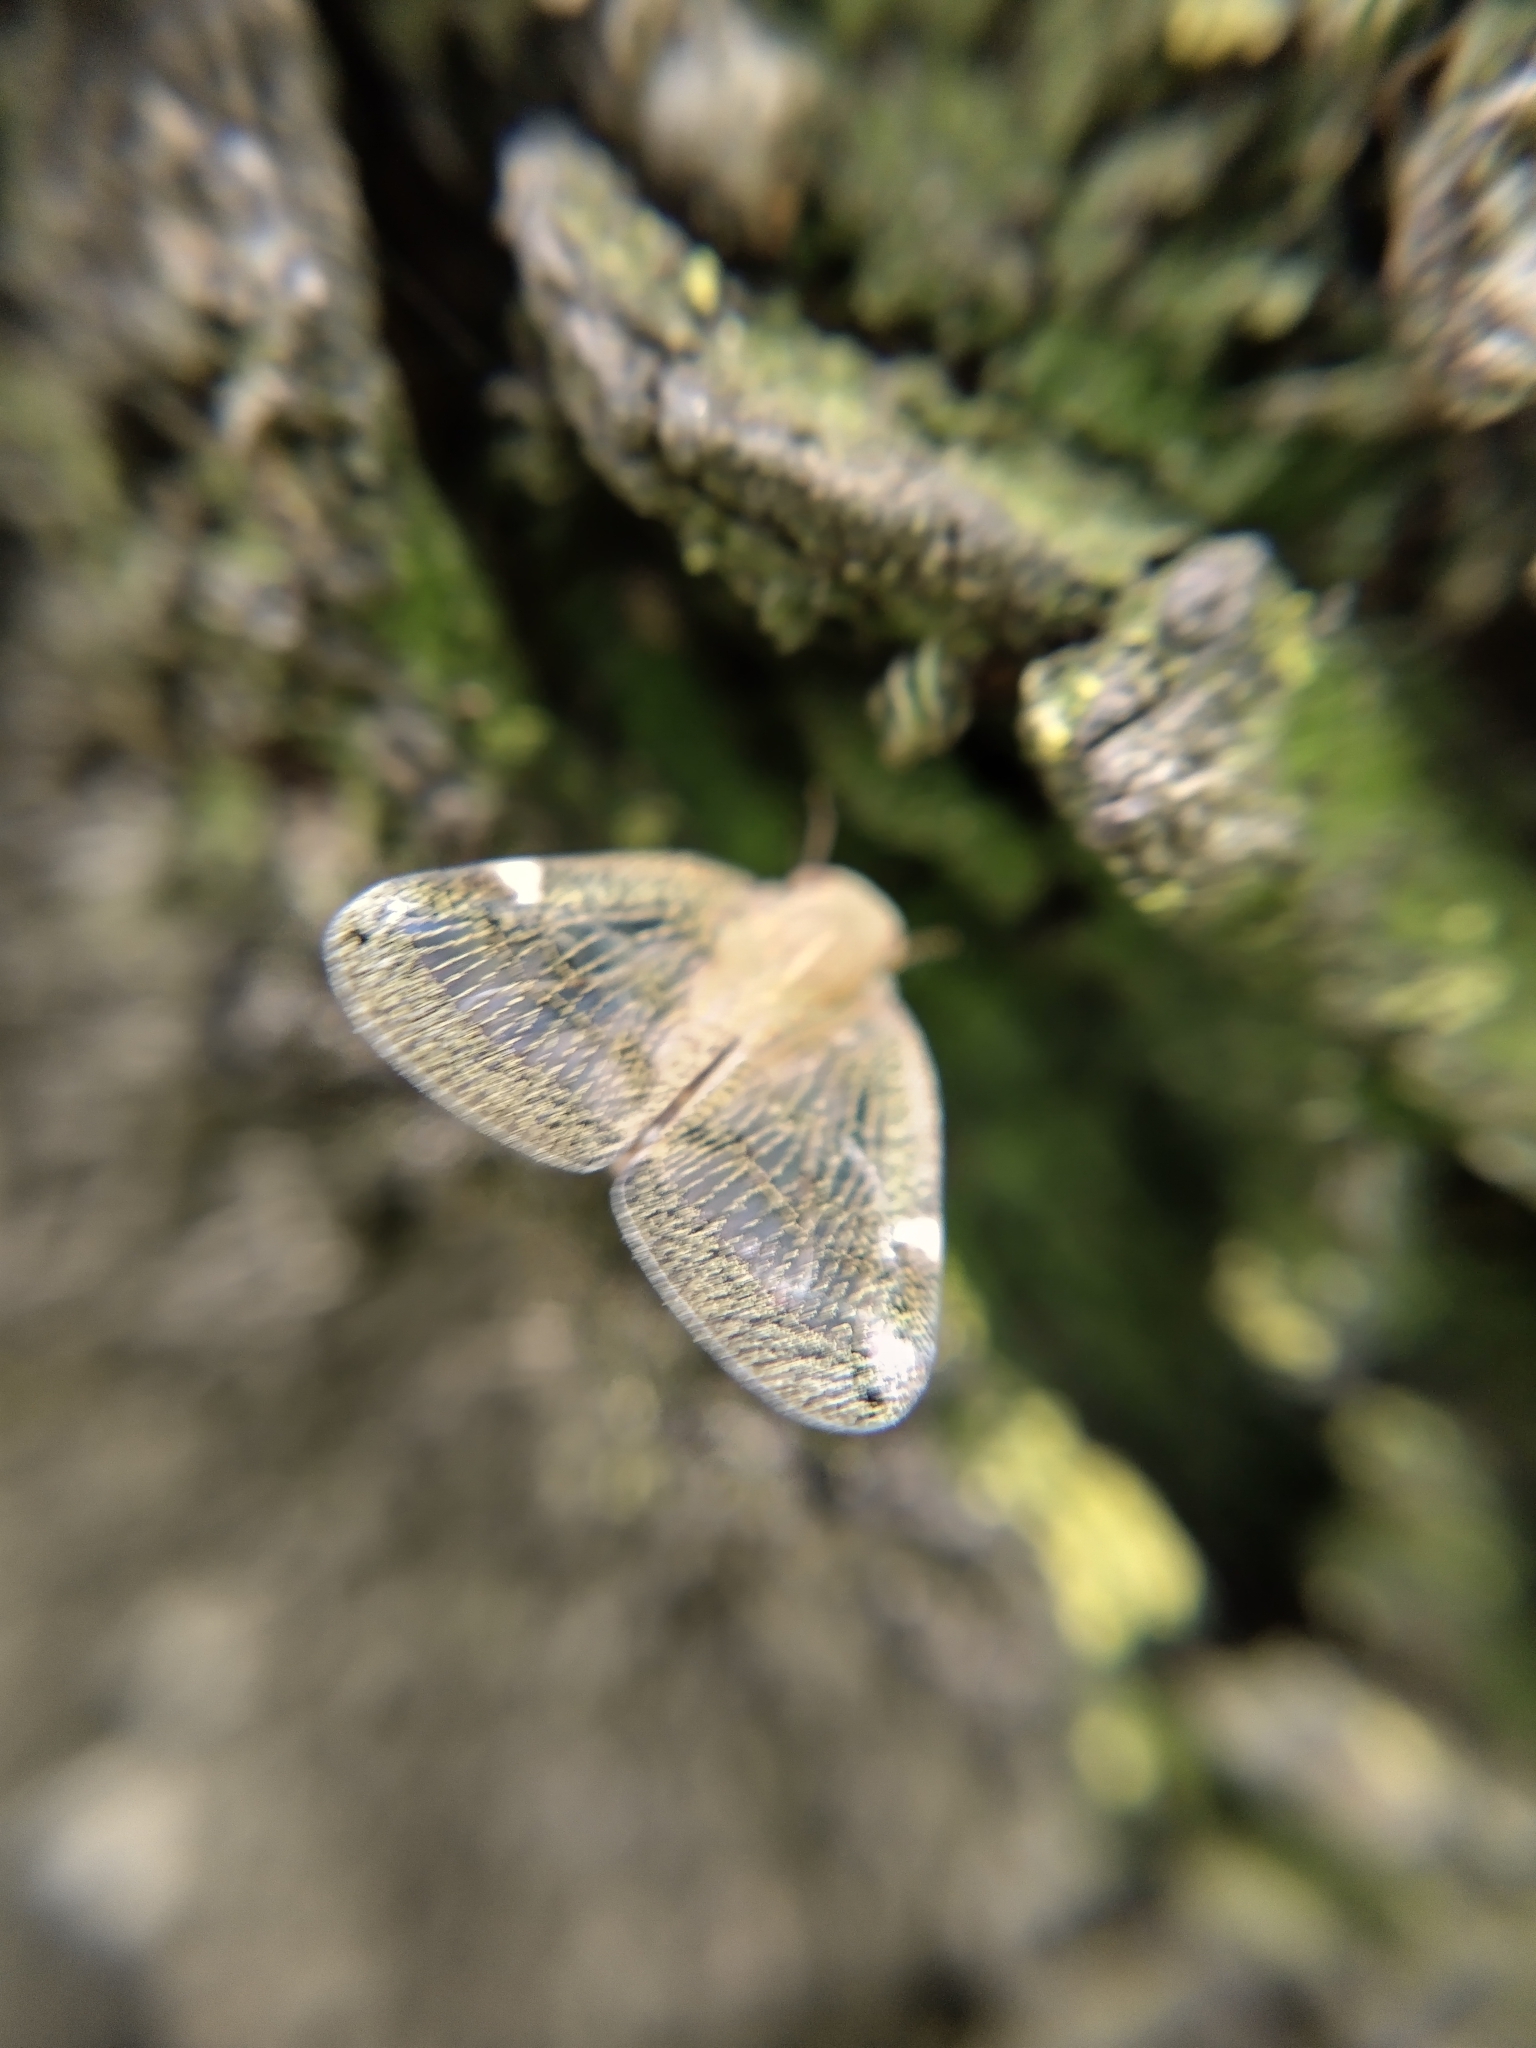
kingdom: Animalia
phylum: Arthropoda
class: Insecta
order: Hemiptera
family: Ricaniidae
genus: Scolypopa
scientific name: Scolypopa australis
